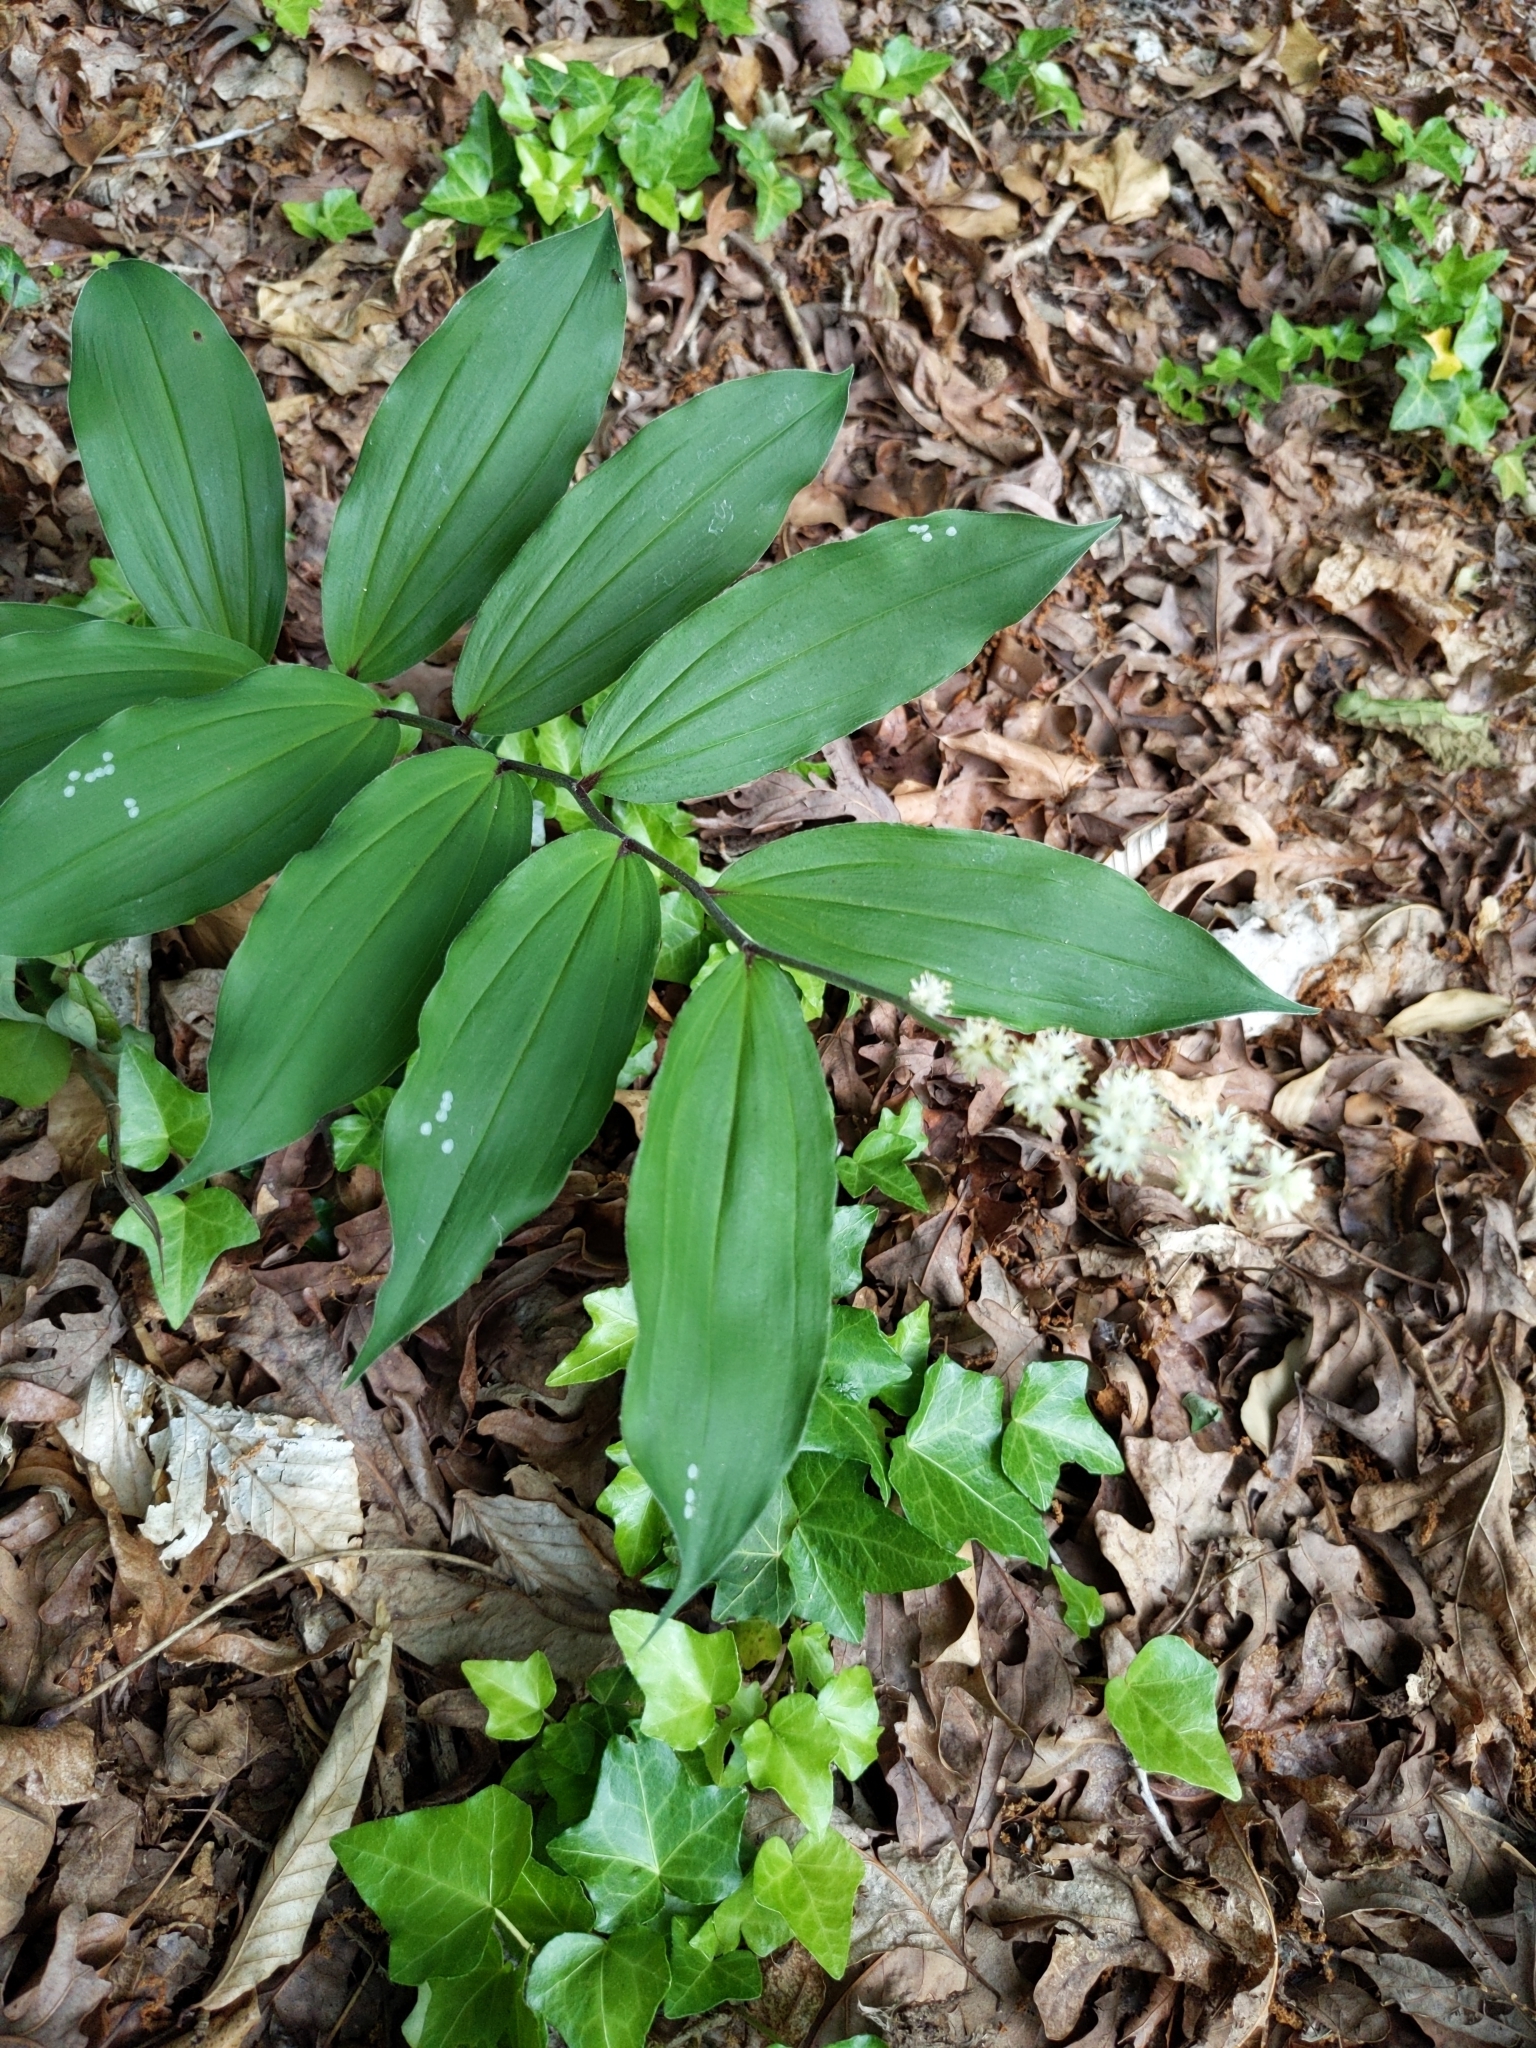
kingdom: Plantae
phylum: Tracheophyta
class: Liliopsida
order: Asparagales
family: Asparagaceae
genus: Maianthemum
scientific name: Maianthemum racemosum
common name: False spikenard
